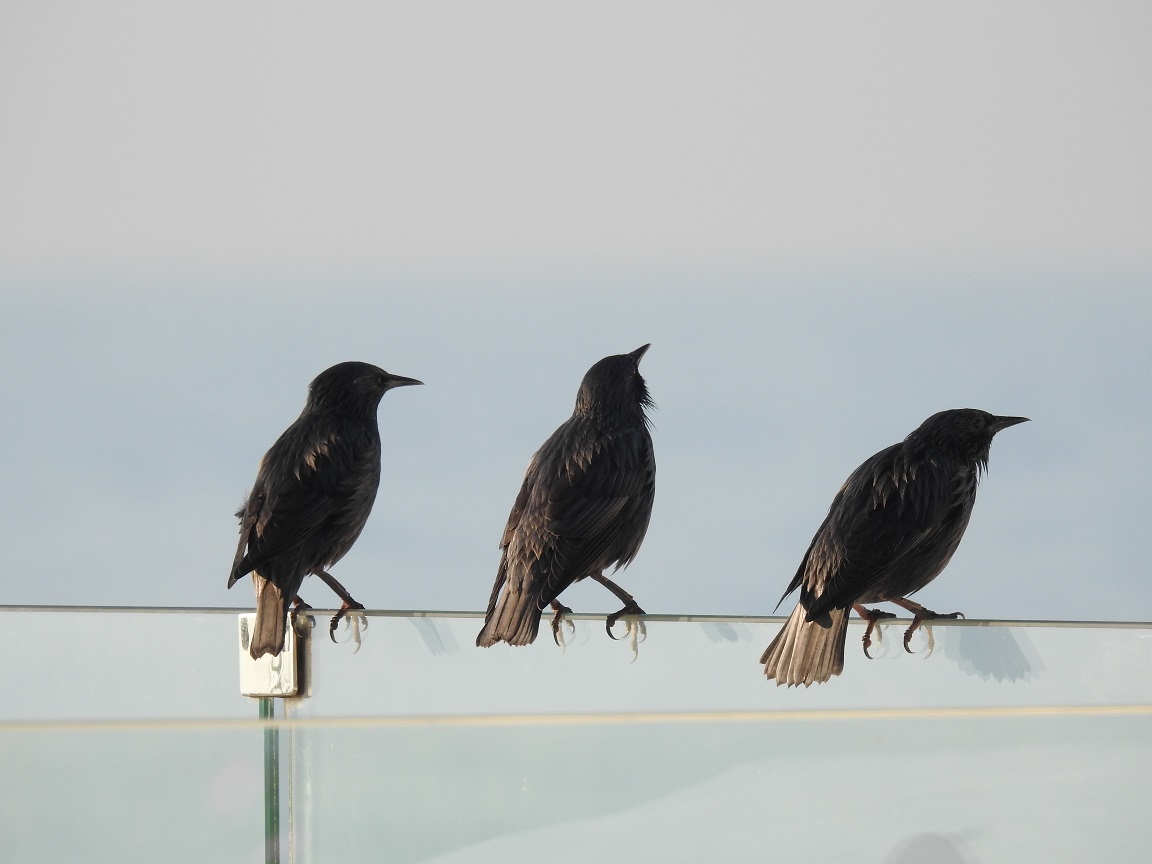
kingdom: Animalia
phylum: Chordata
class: Aves
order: Passeriformes
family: Sturnidae
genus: Sturnus
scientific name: Sturnus unicolor
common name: Spotless starling
